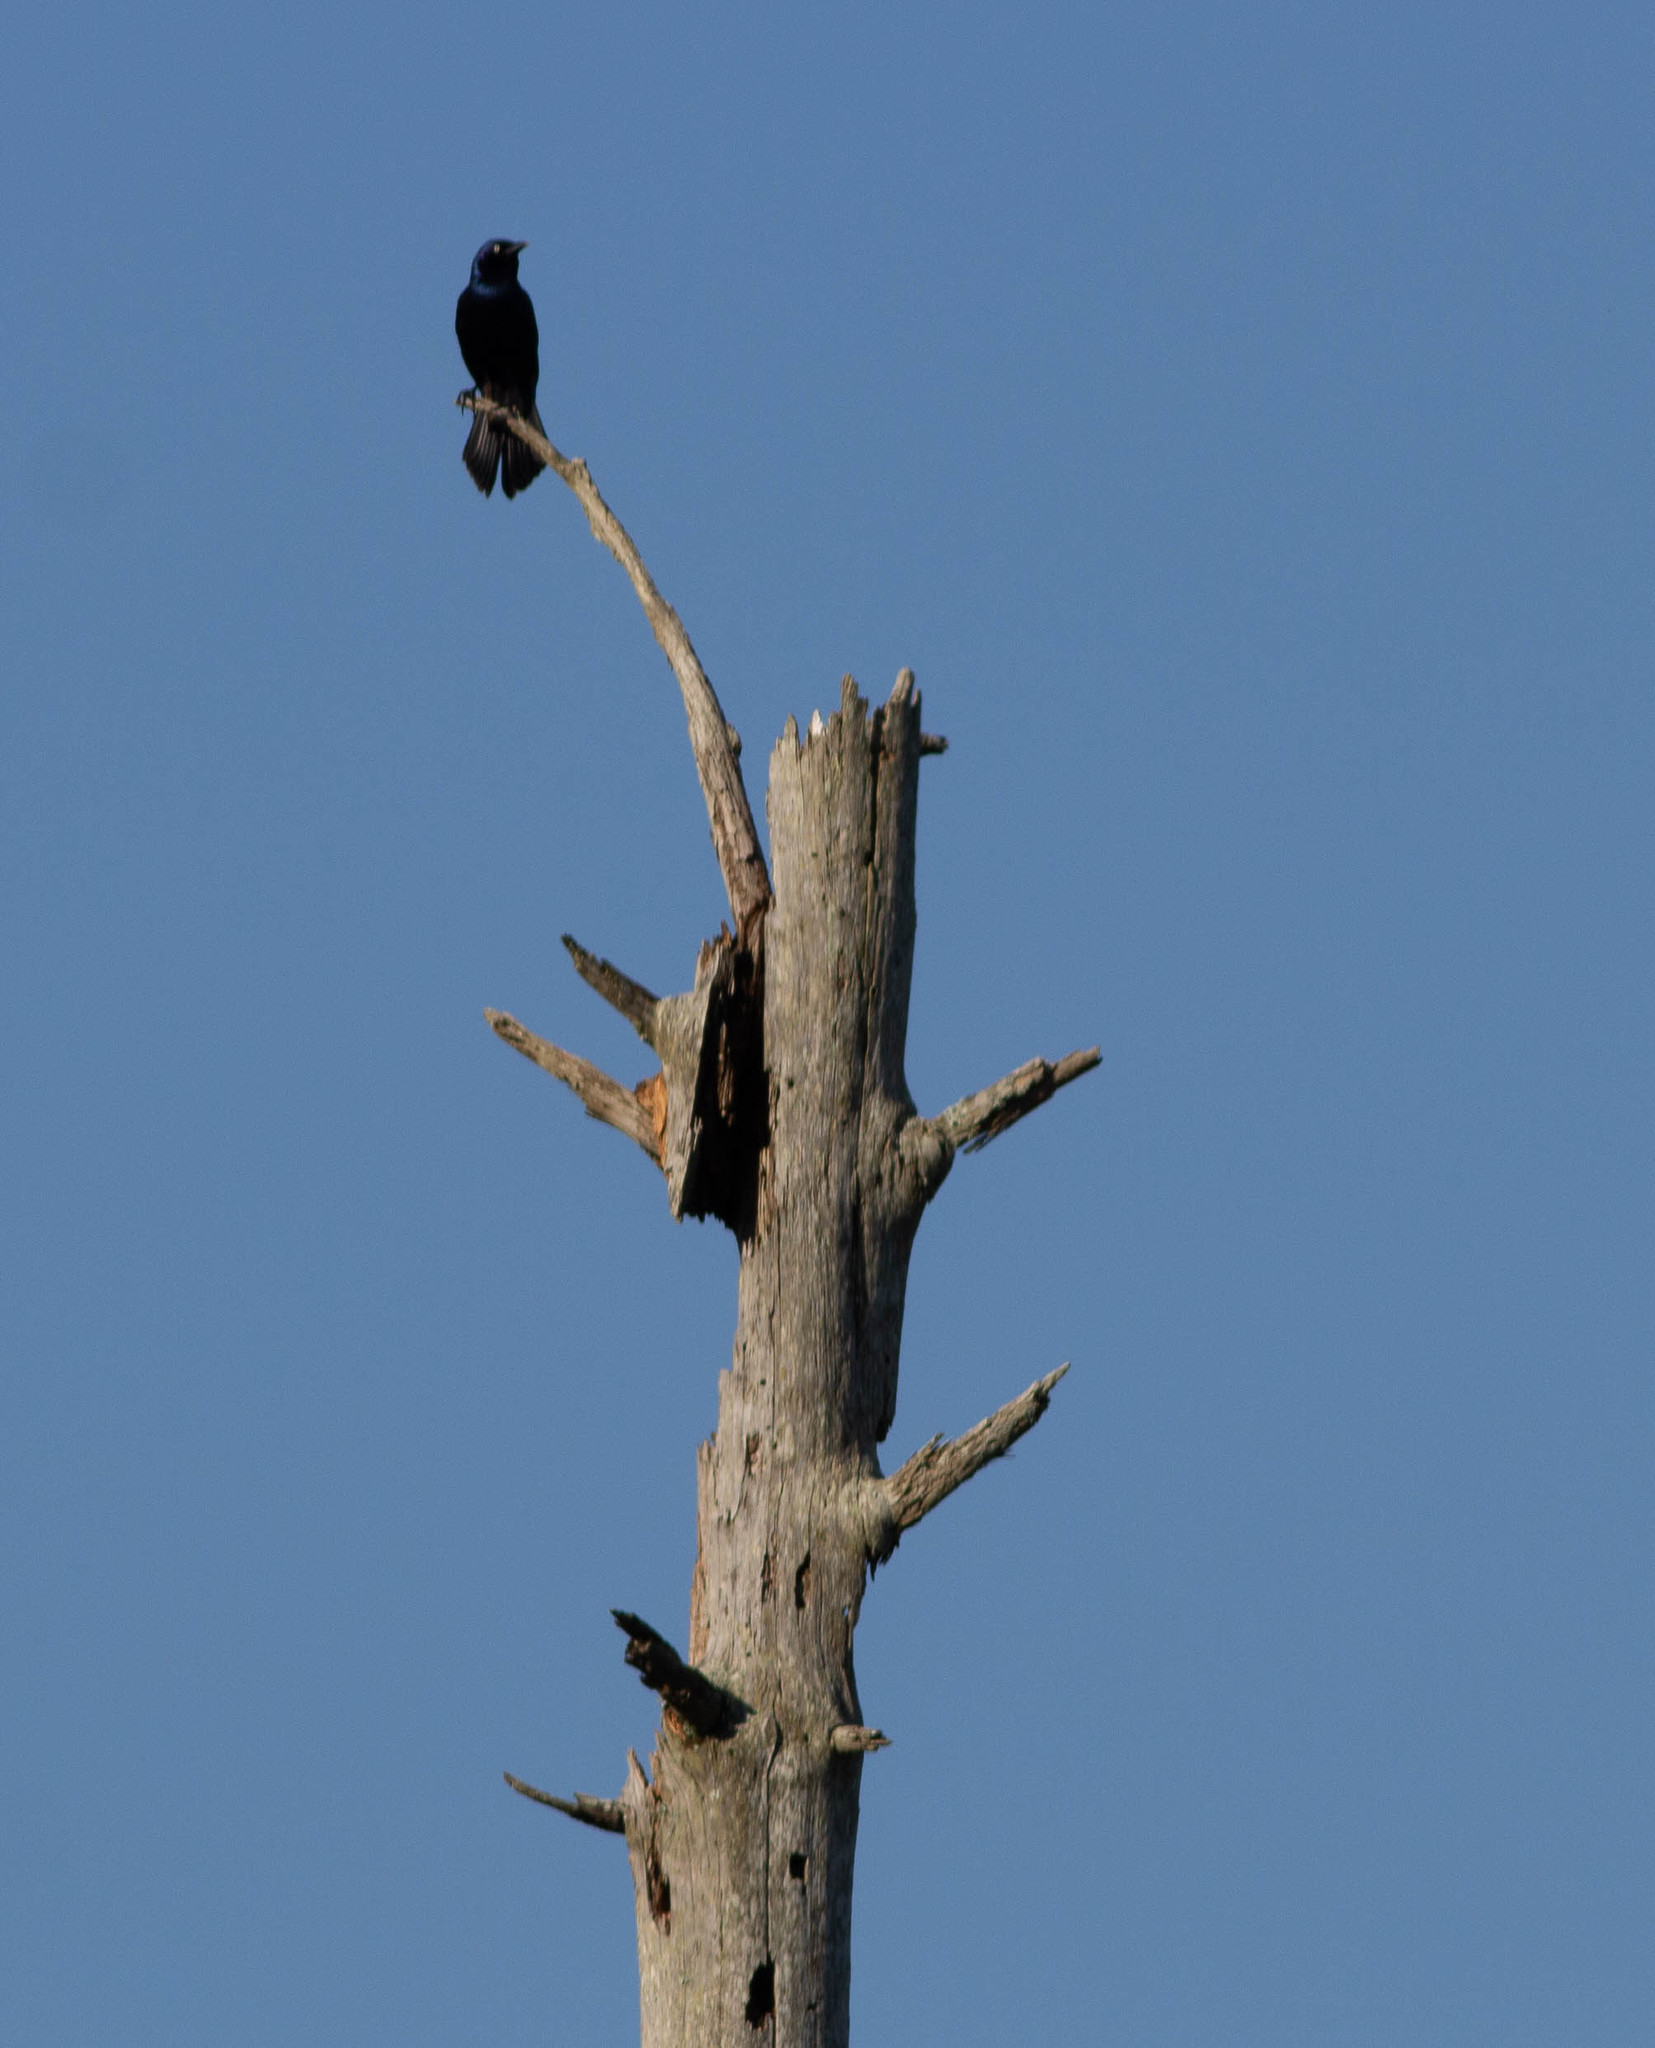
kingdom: Animalia
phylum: Chordata
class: Aves
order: Passeriformes
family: Icteridae
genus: Quiscalus
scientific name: Quiscalus quiscula
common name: Common grackle
